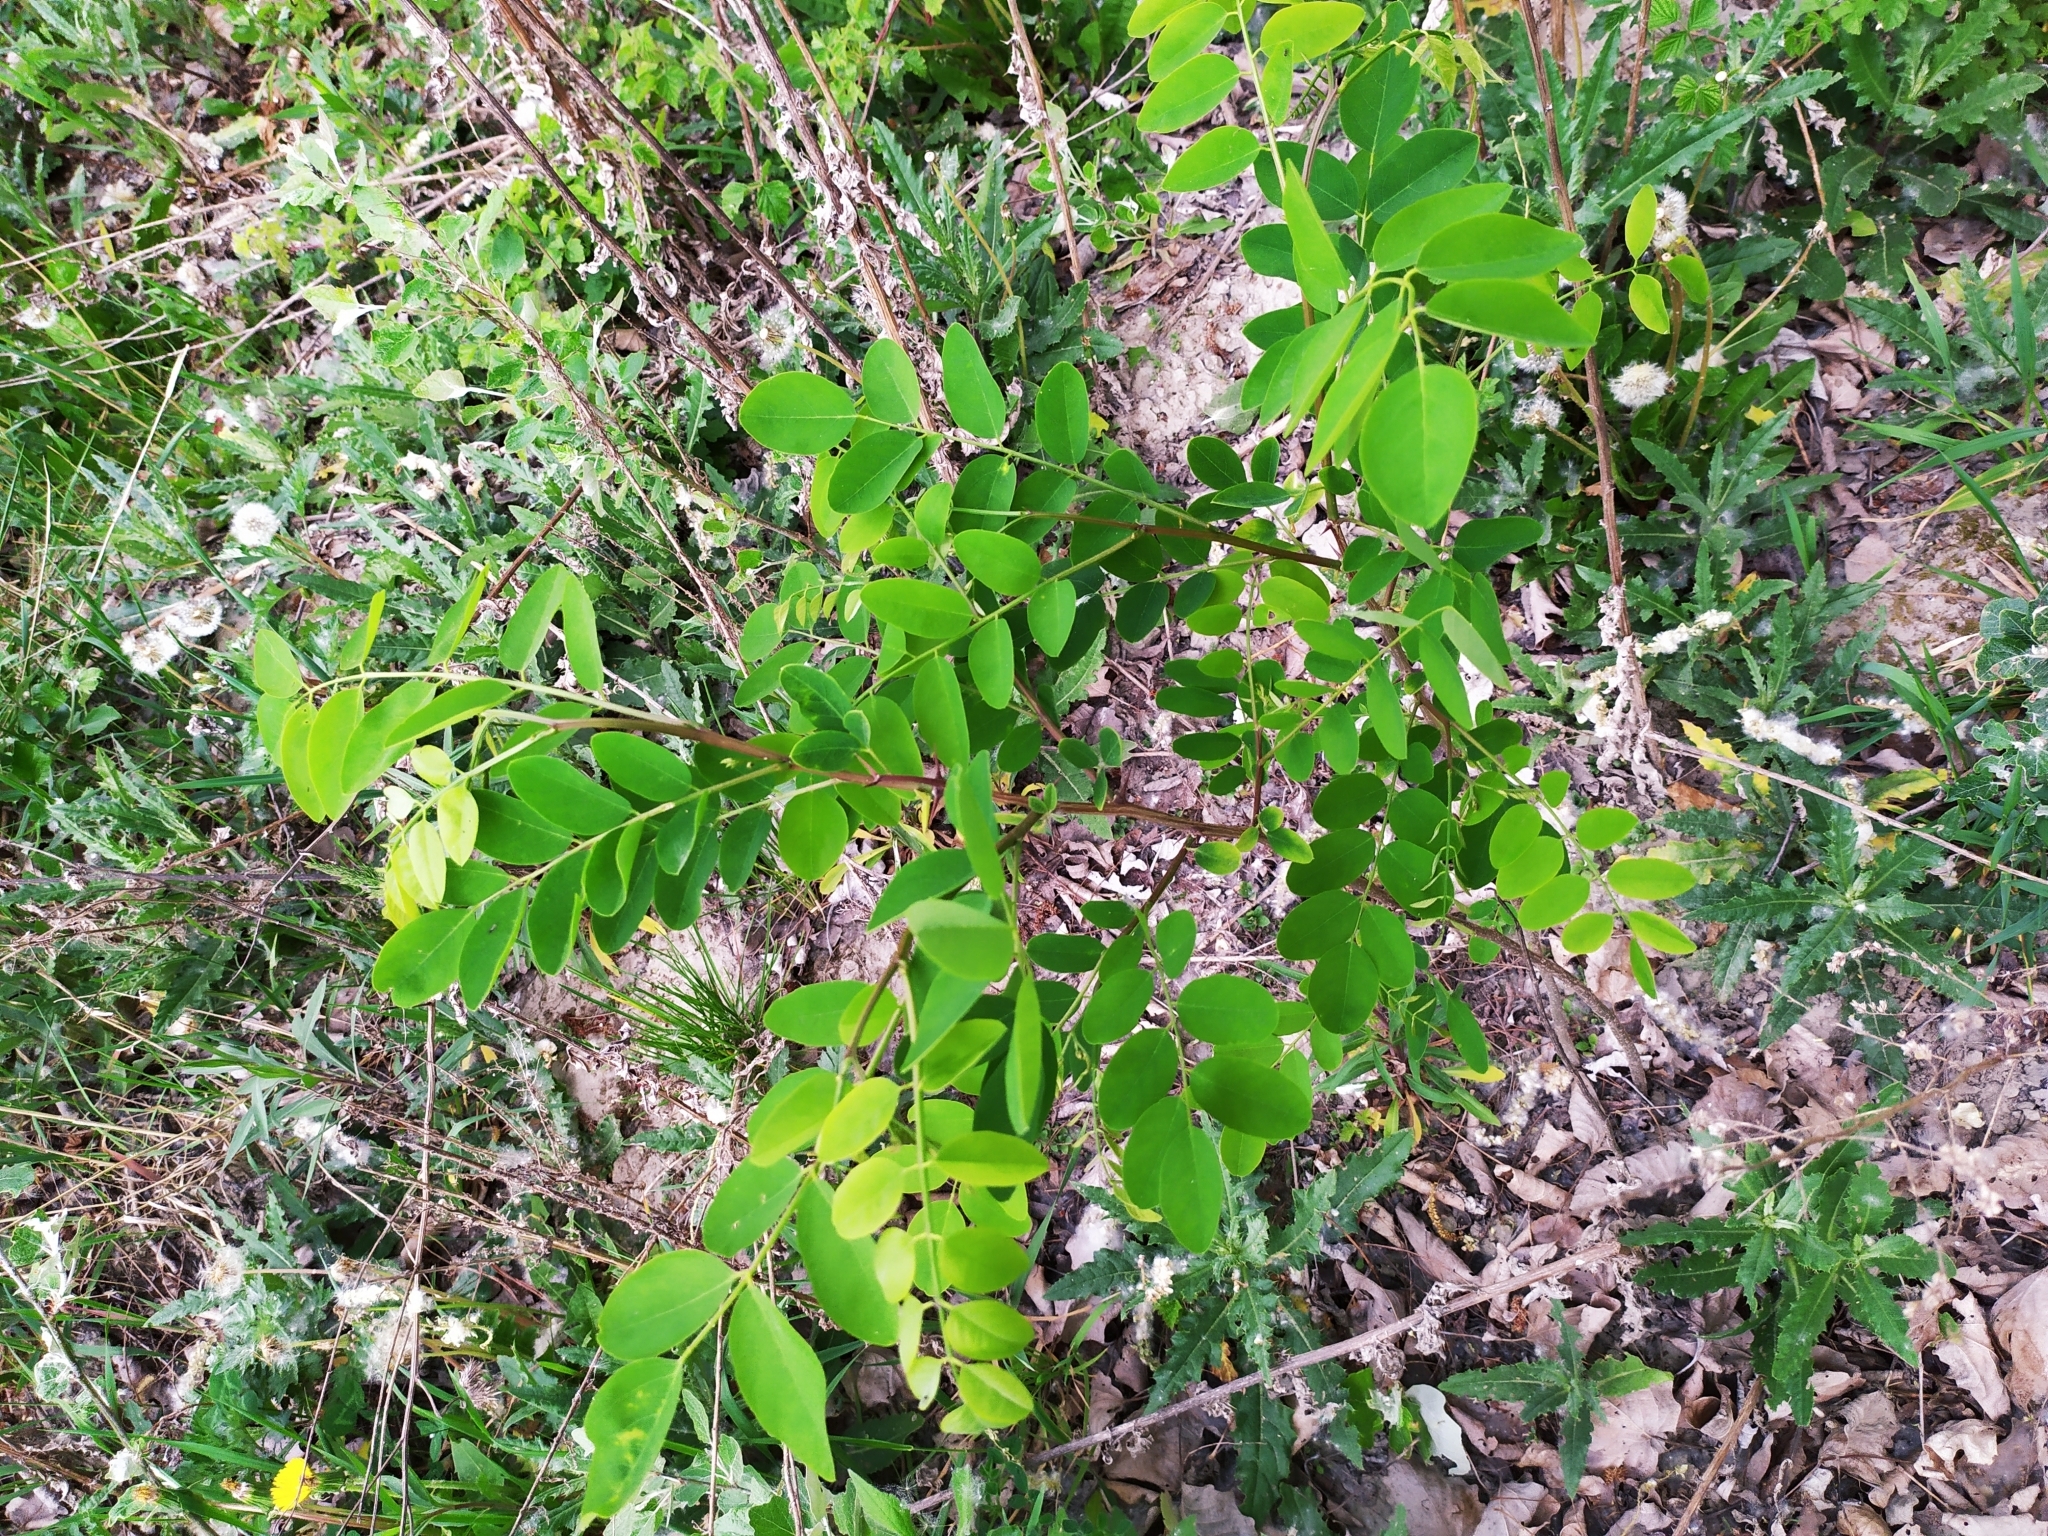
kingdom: Plantae
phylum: Tracheophyta
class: Magnoliopsida
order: Fabales
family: Fabaceae
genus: Robinia
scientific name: Robinia pseudoacacia
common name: Black locust
